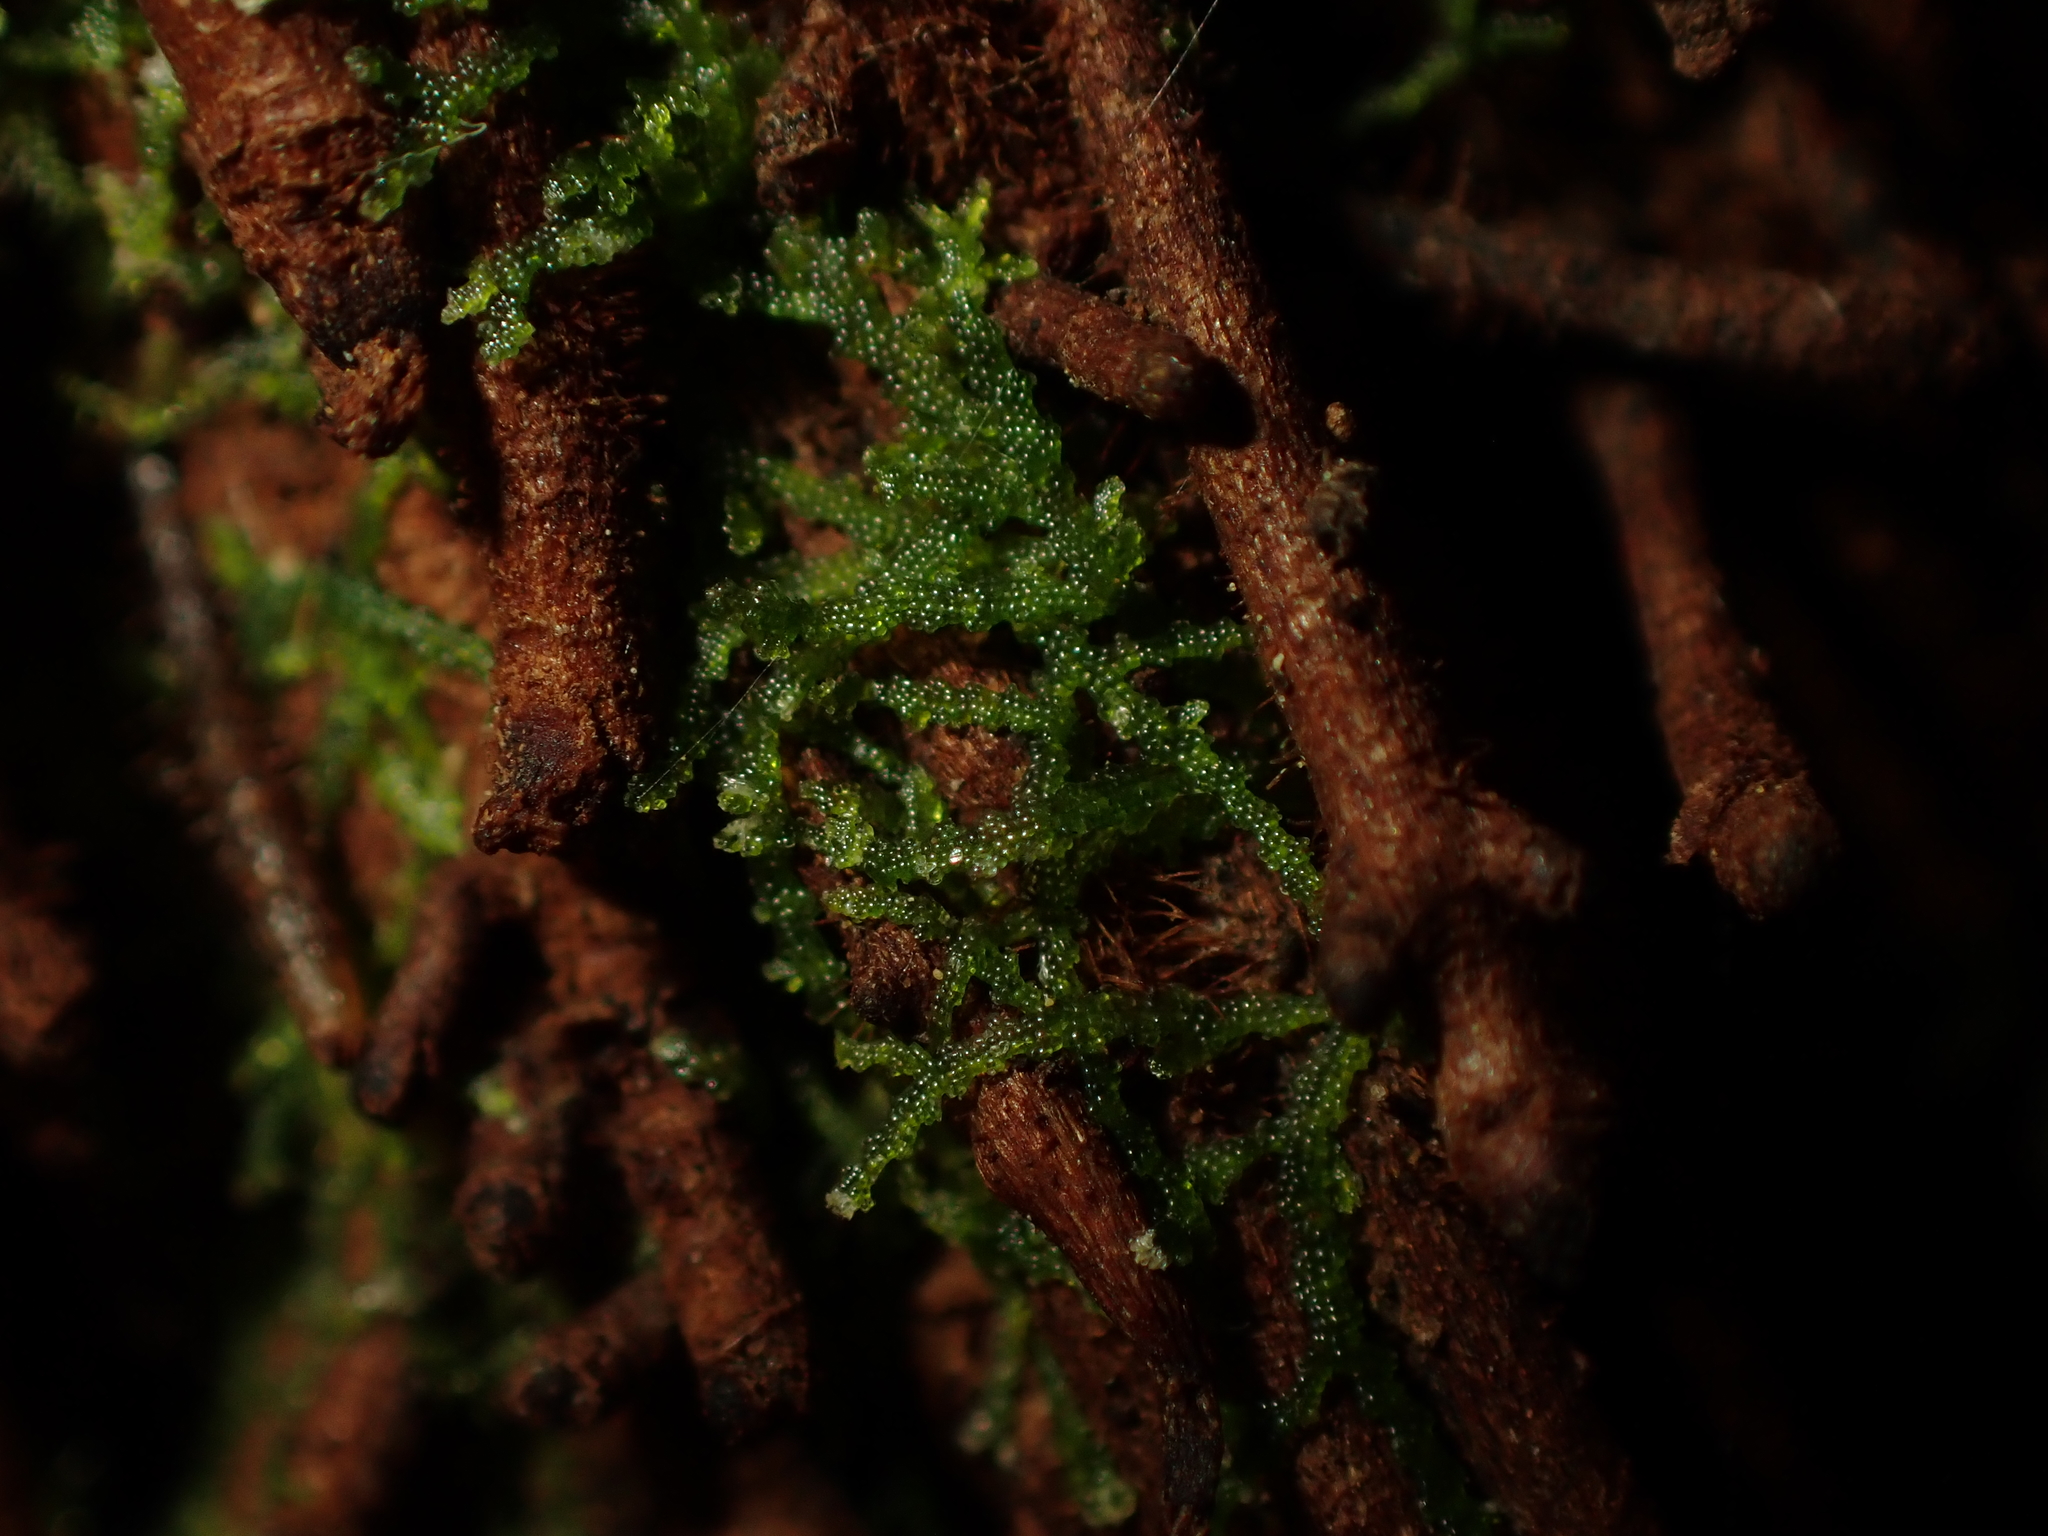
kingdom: Plantae
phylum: Marchantiophyta
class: Jungermanniopsida
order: Jungermanniales
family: Lepidoziaceae
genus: Zoopsis
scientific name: Zoopsis argentea
